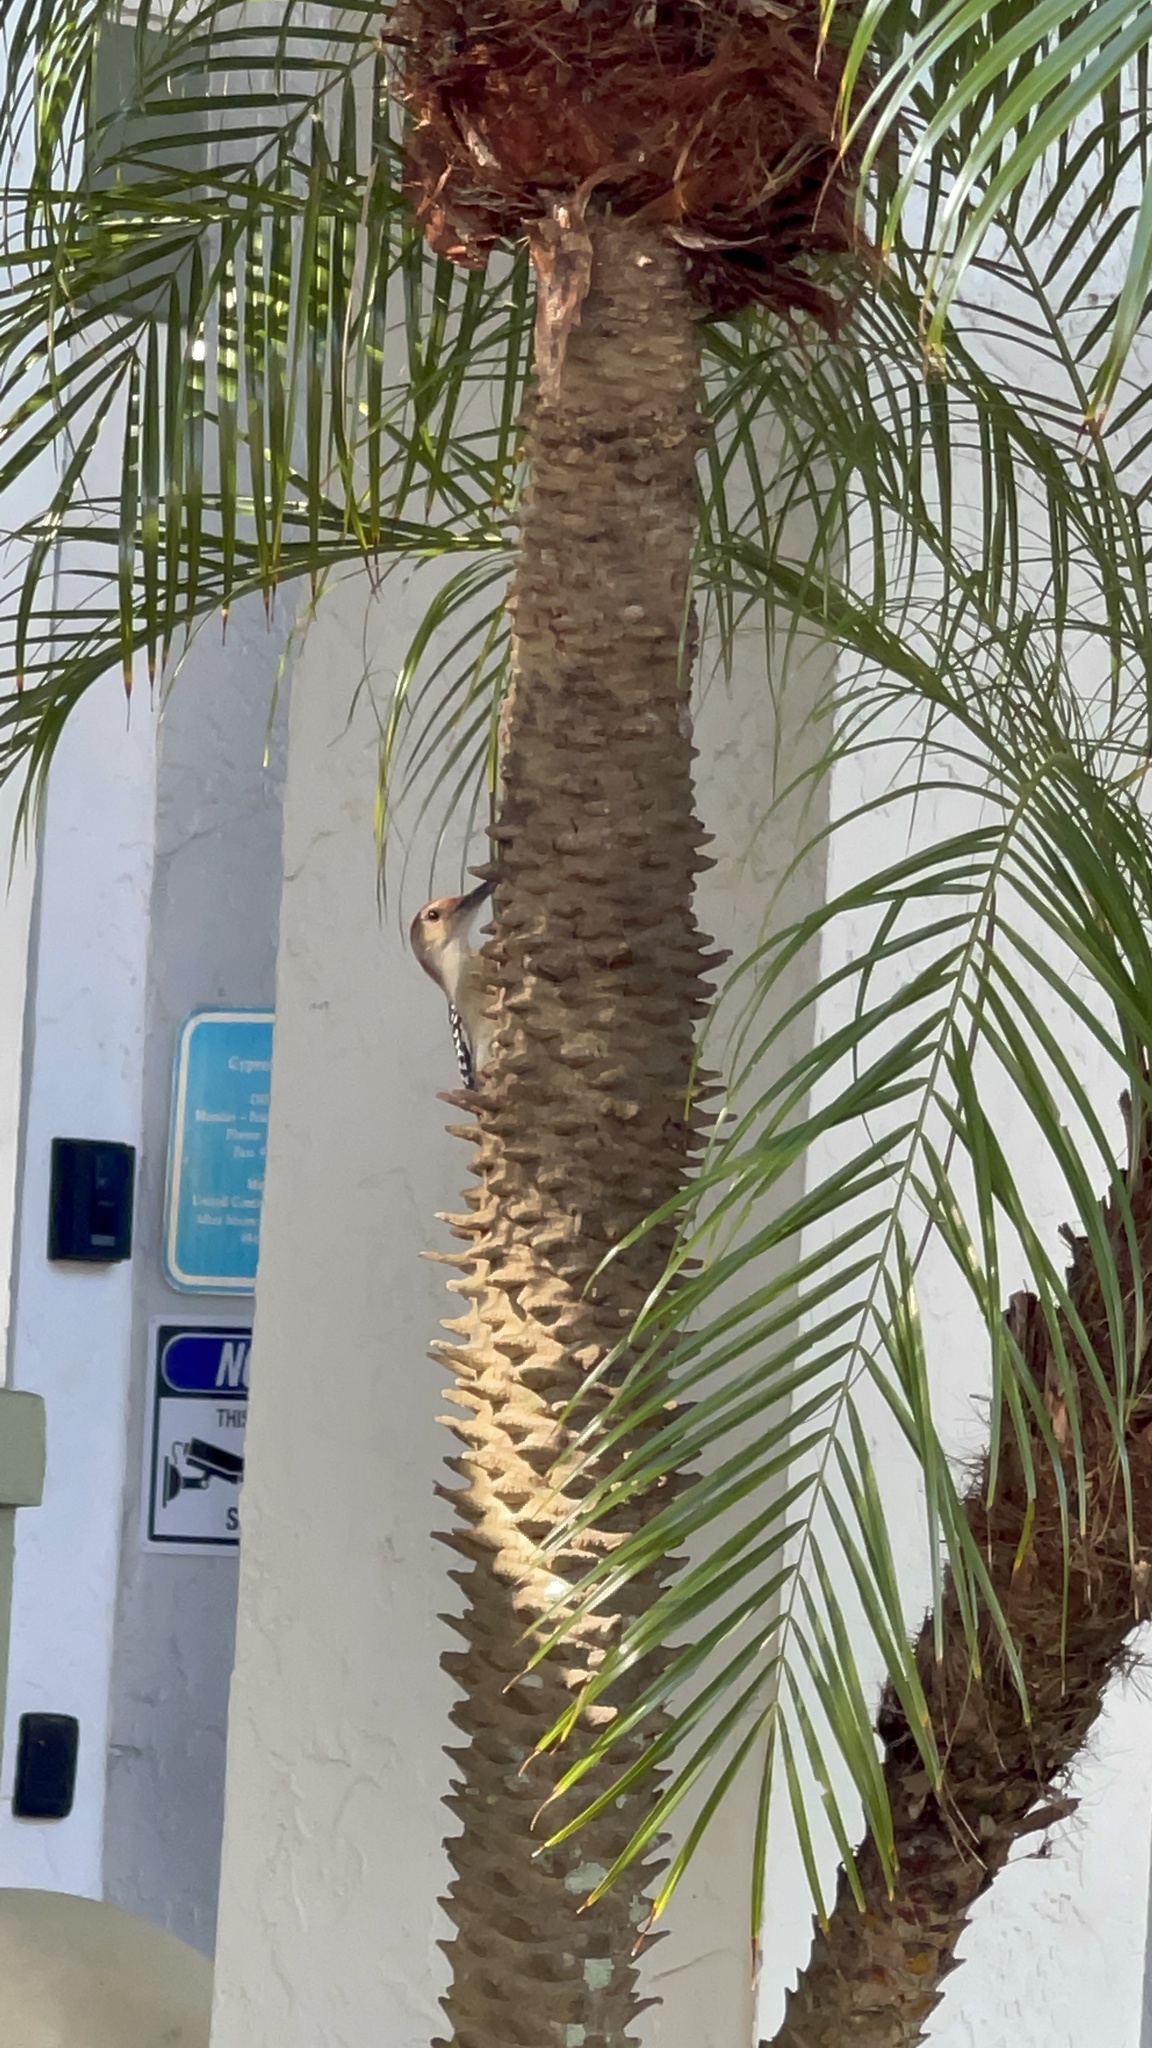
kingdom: Animalia
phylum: Chordata
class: Aves
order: Piciformes
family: Picidae
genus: Melanerpes
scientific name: Melanerpes carolinus
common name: Red-bellied woodpecker
